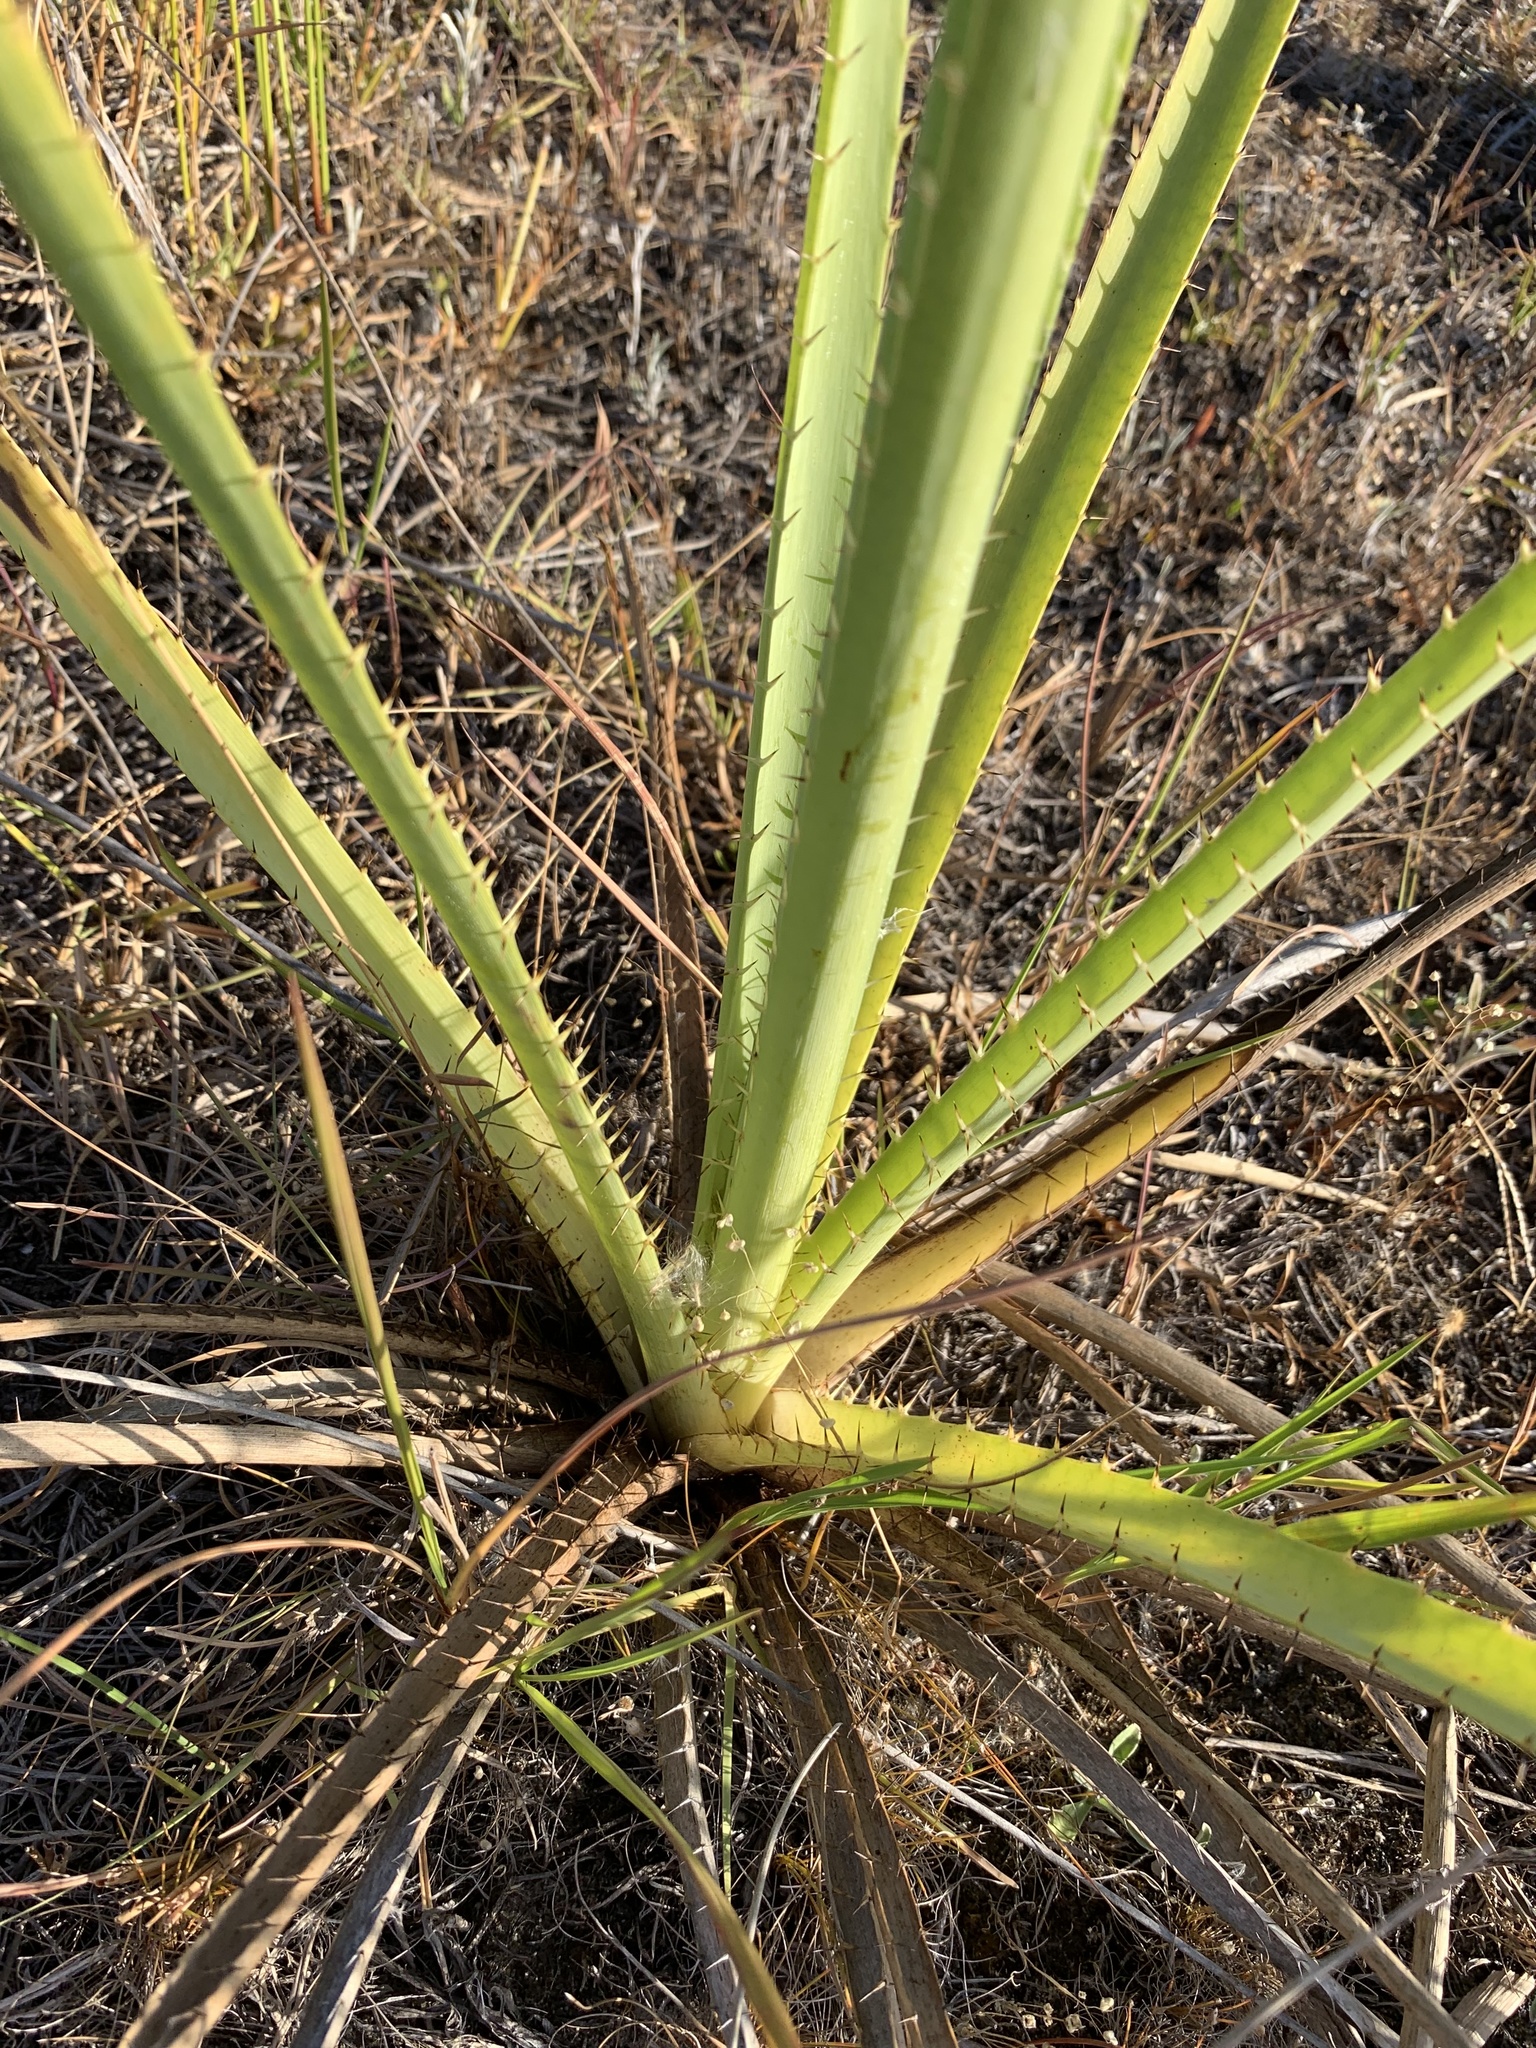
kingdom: Plantae
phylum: Tracheophyta
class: Magnoliopsida
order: Apiales
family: Apiaceae
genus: Eryngium
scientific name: Eryngium pandanifolium
